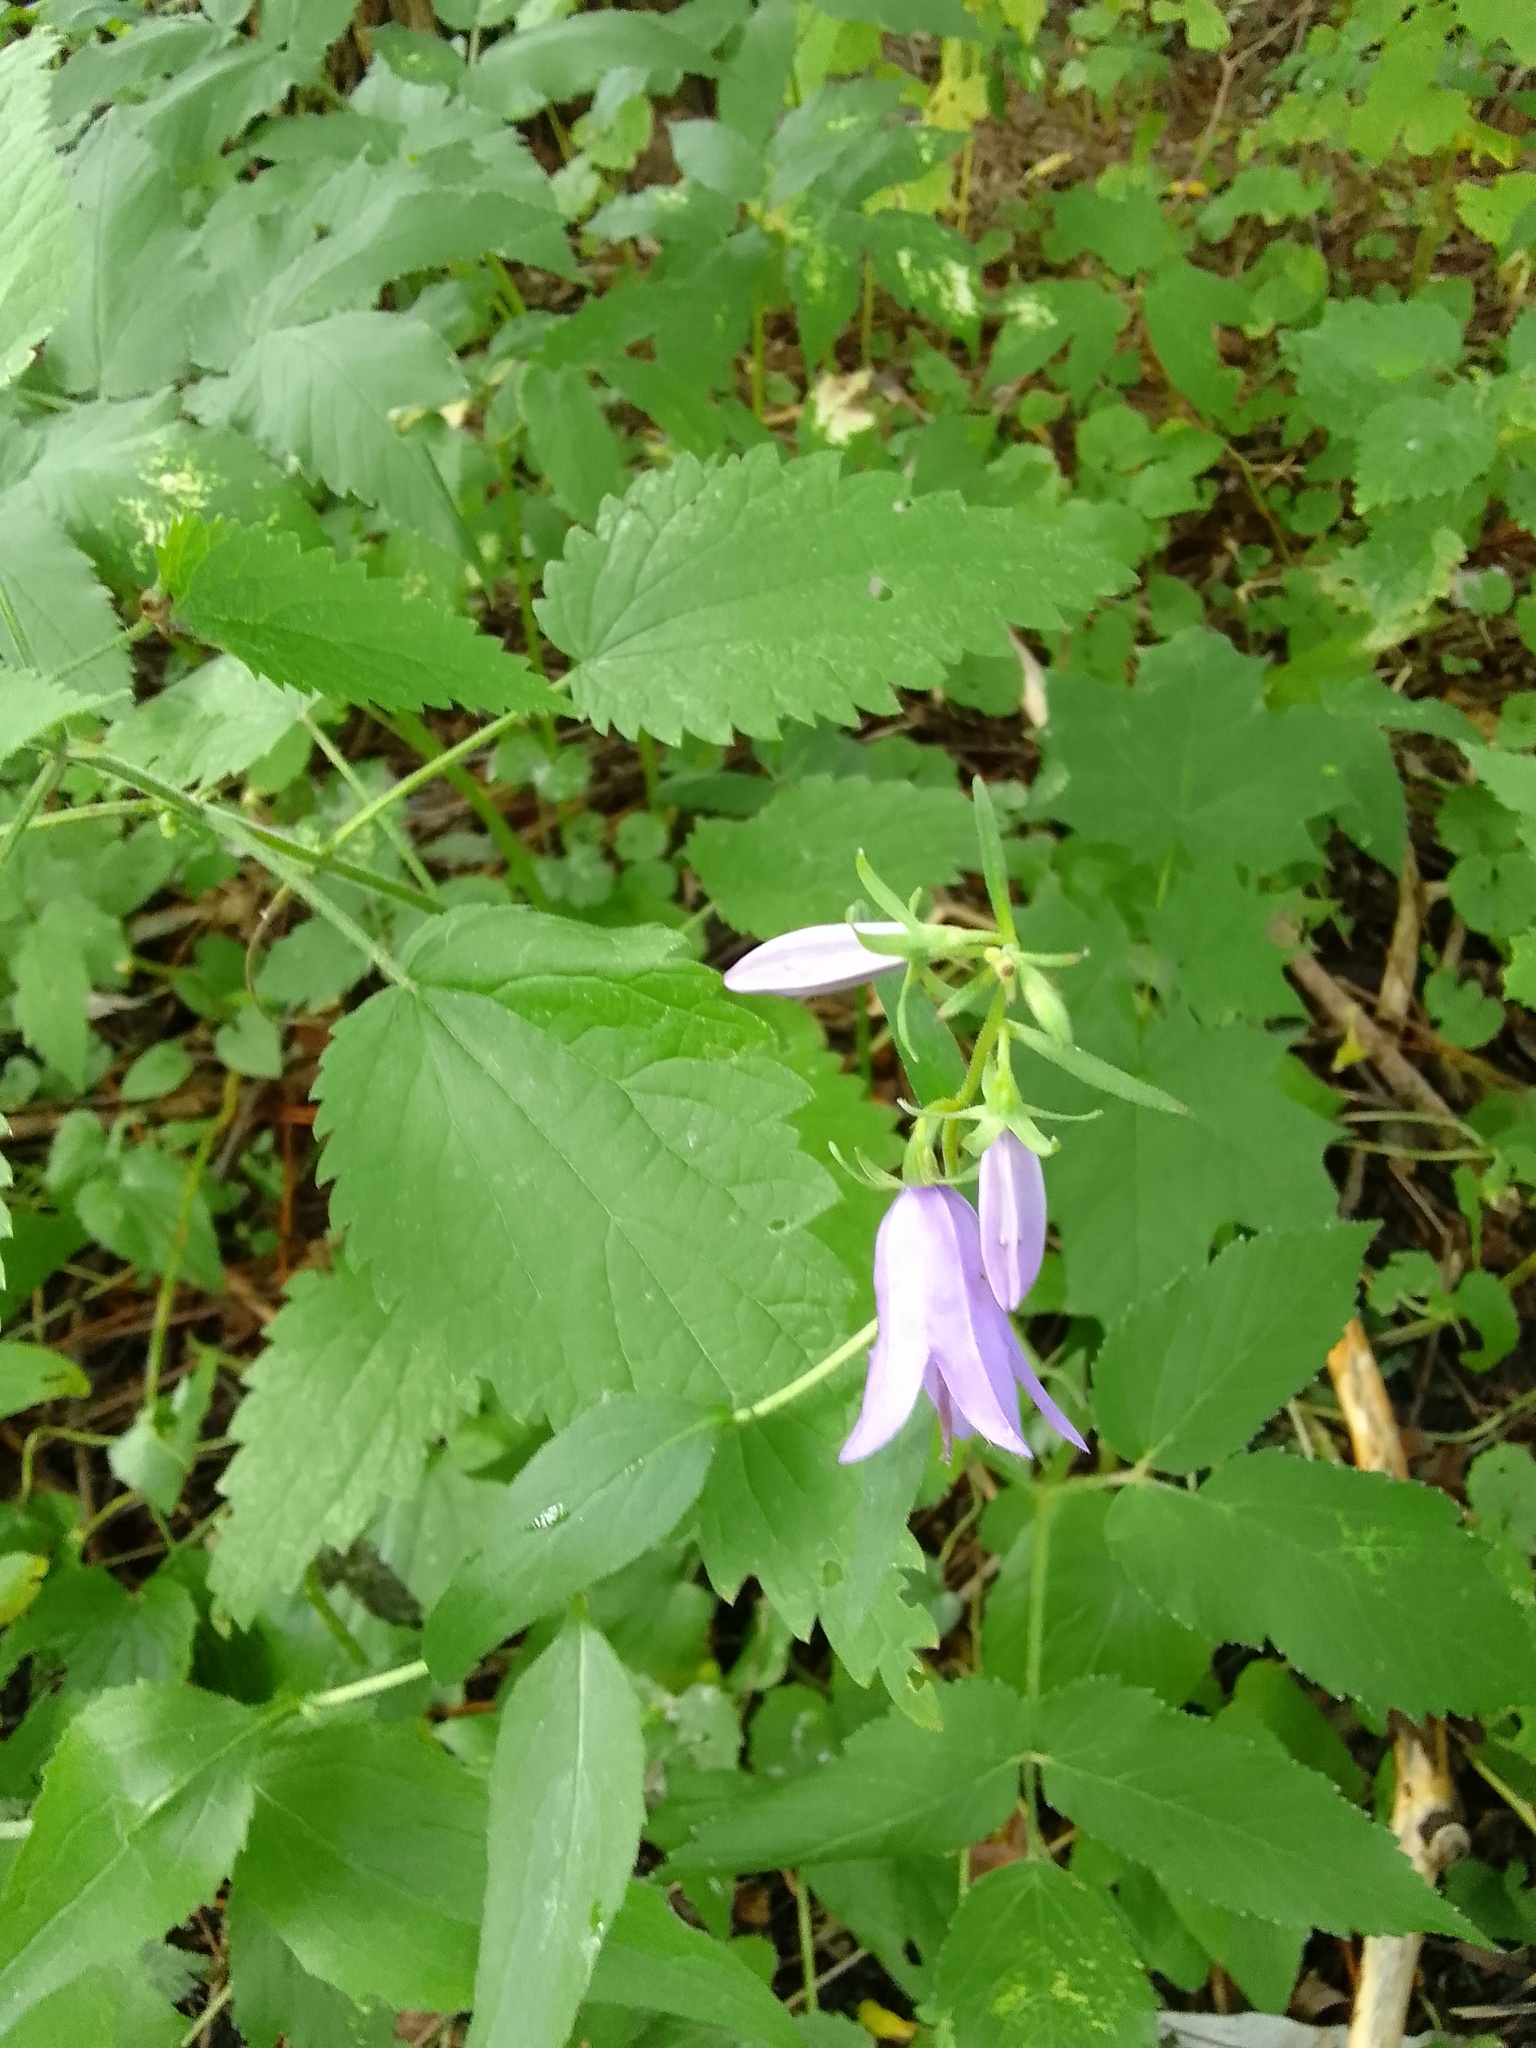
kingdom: Plantae
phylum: Tracheophyta
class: Magnoliopsida
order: Asterales
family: Campanulaceae
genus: Campanula
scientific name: Campanula rapunculoides
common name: Creeping bellflower
